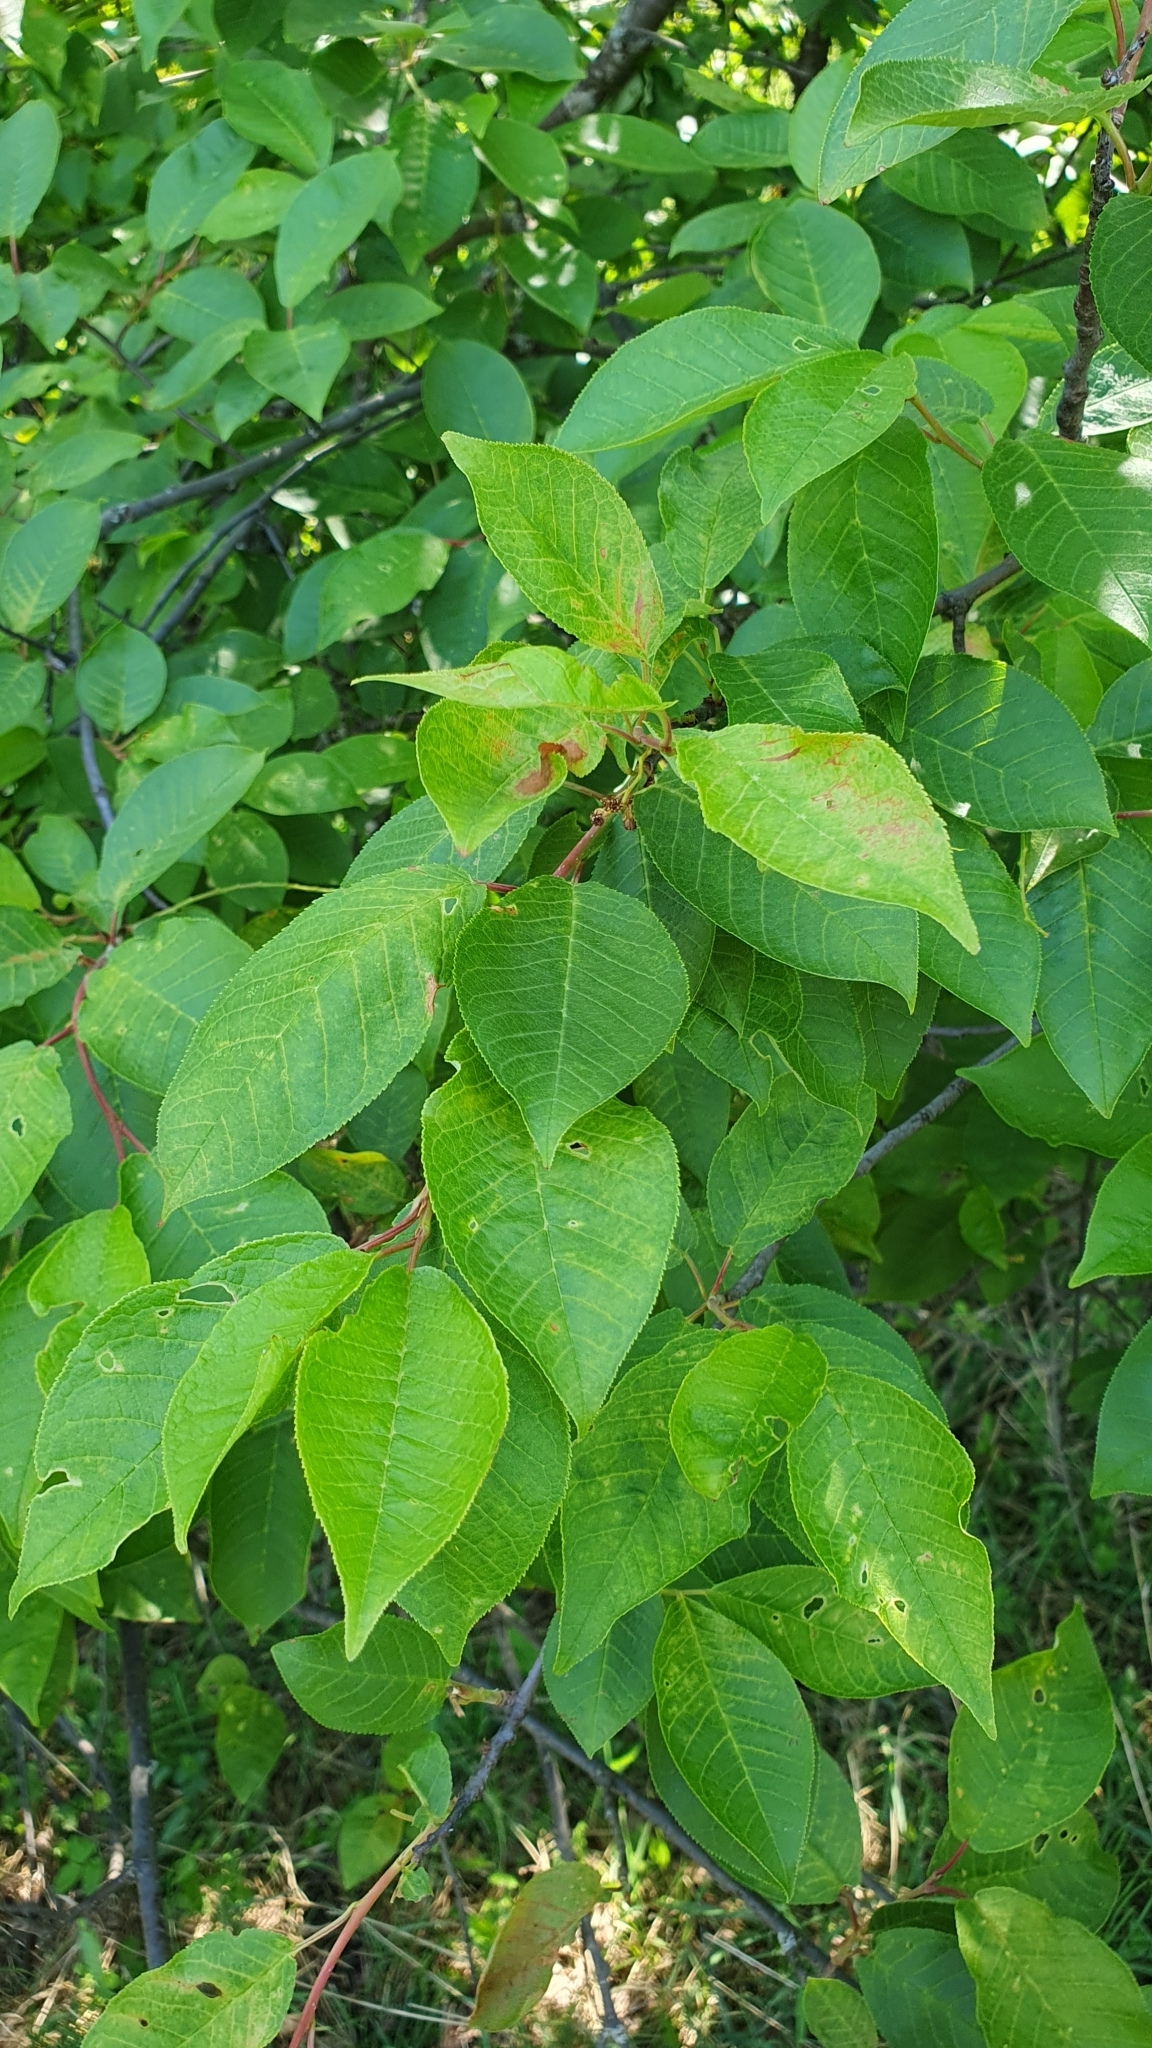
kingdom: Plantae
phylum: Tracheophyta
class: Magnoliopsida
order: Rosales
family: Rosaceae
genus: Prunus
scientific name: Prunus padus
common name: Bird cherry
